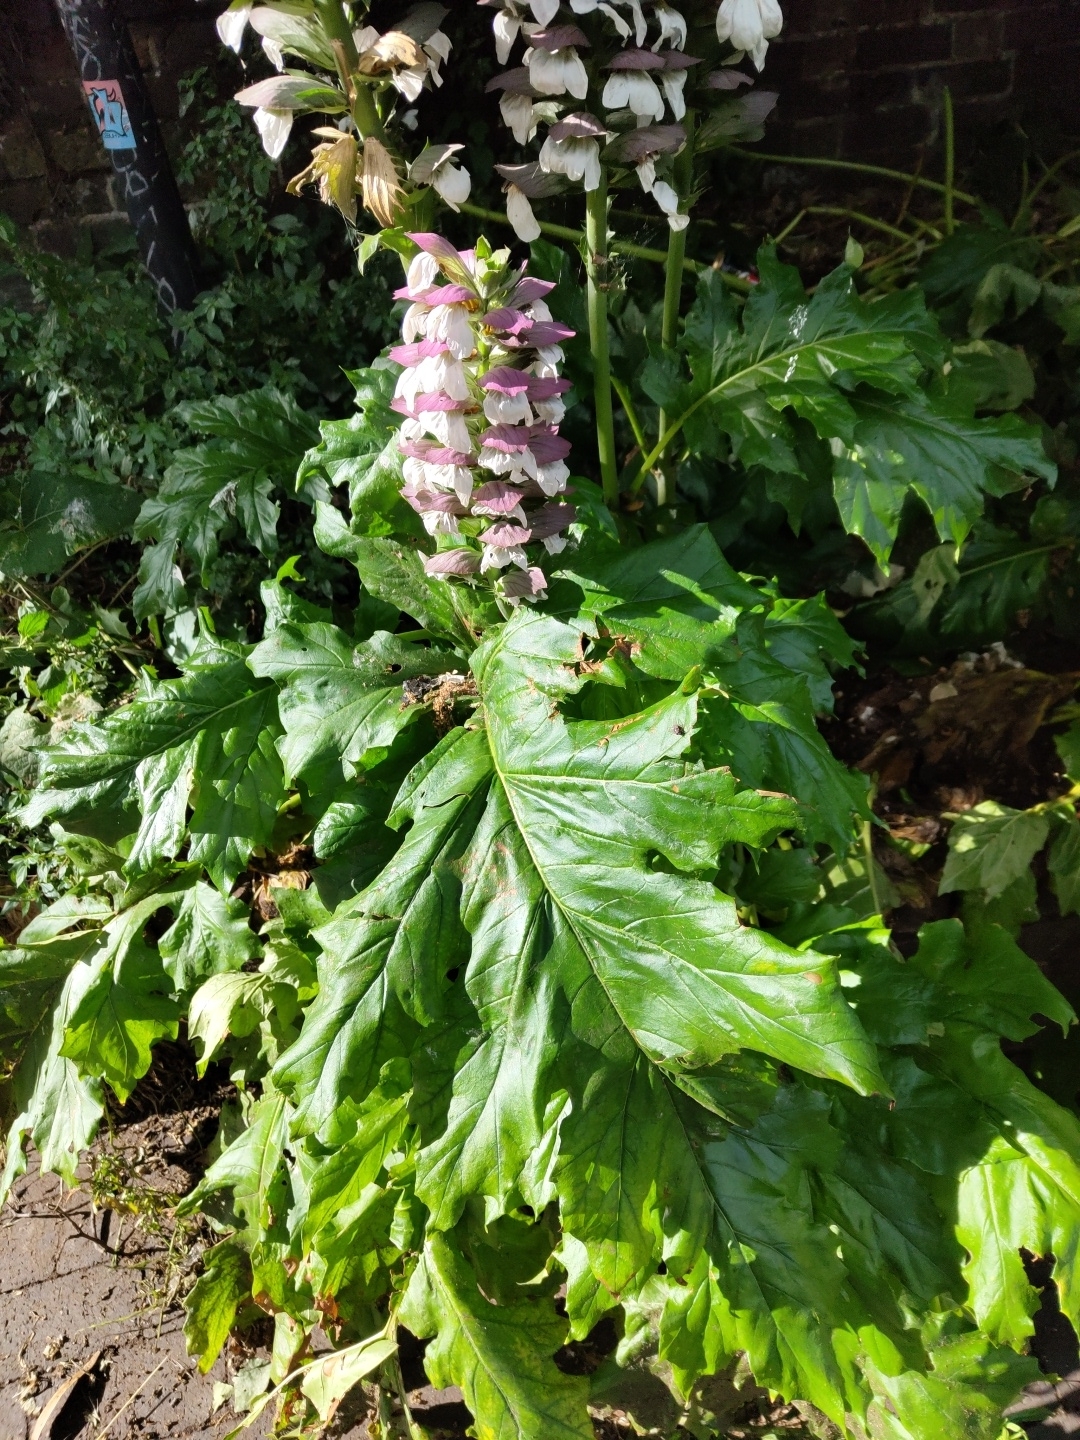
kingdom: Plantae
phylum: Tracheophyta
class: Magnoliopsida
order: Lamiales
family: Acanthaceae
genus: Acanthus
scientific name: Acanthus mollis
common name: Bear's-breech
